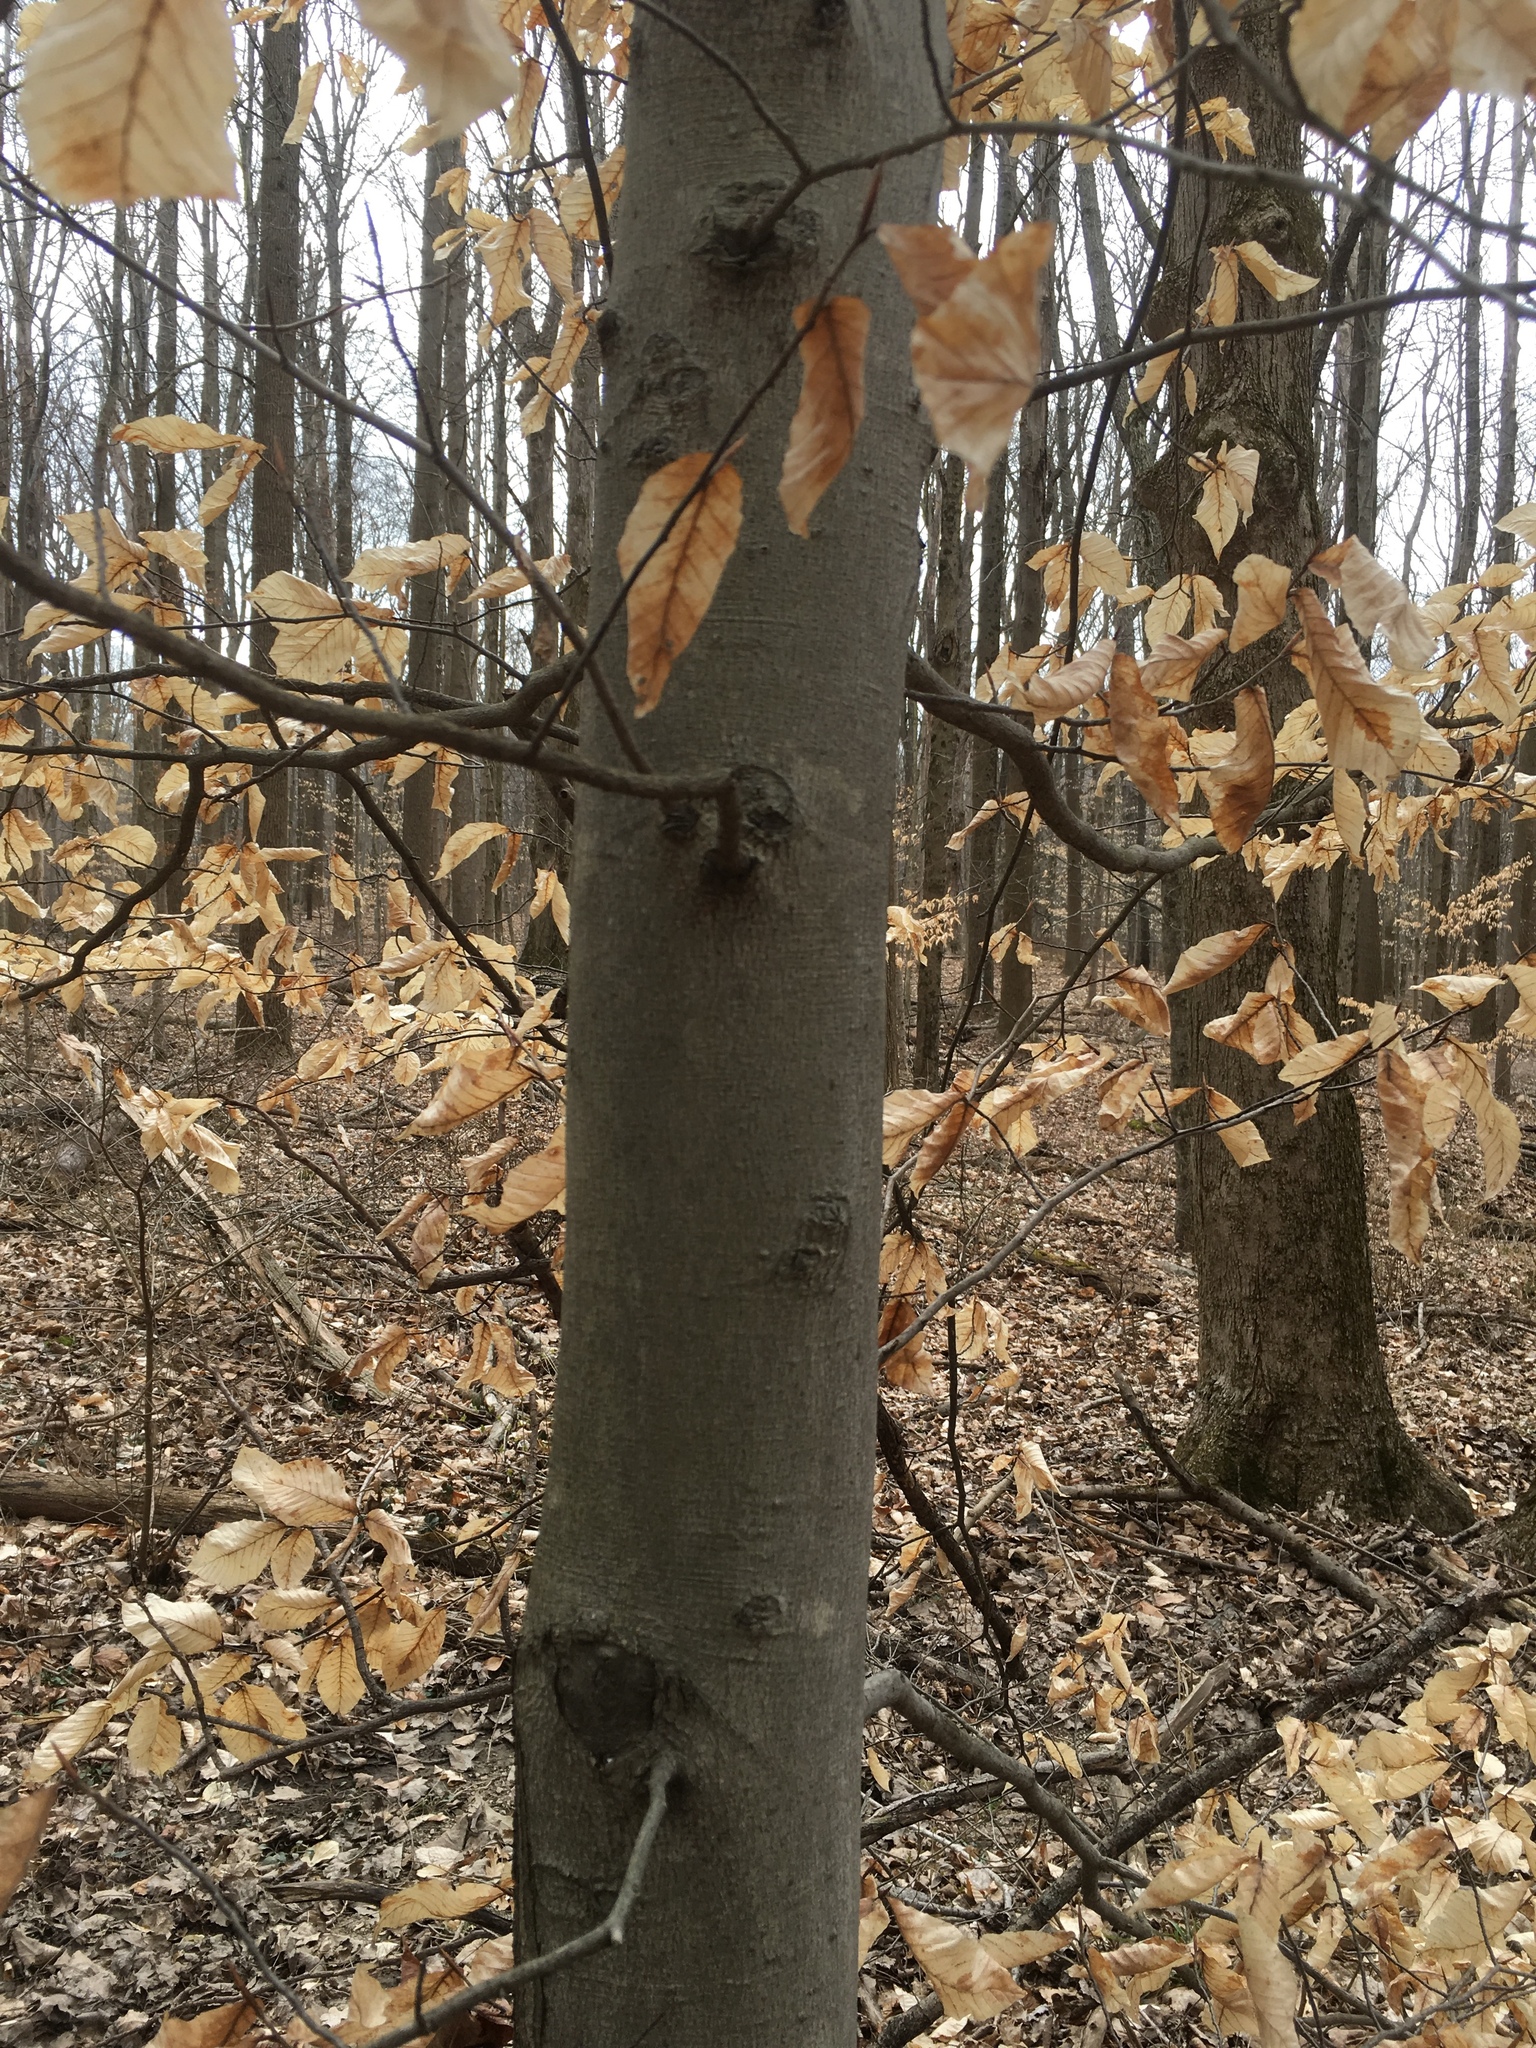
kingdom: Plantae
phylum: Tracheophyta
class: Magnoliopsida
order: Fagales
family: Fagaceae
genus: Fagus
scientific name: Fagus grandifolia
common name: American beech
